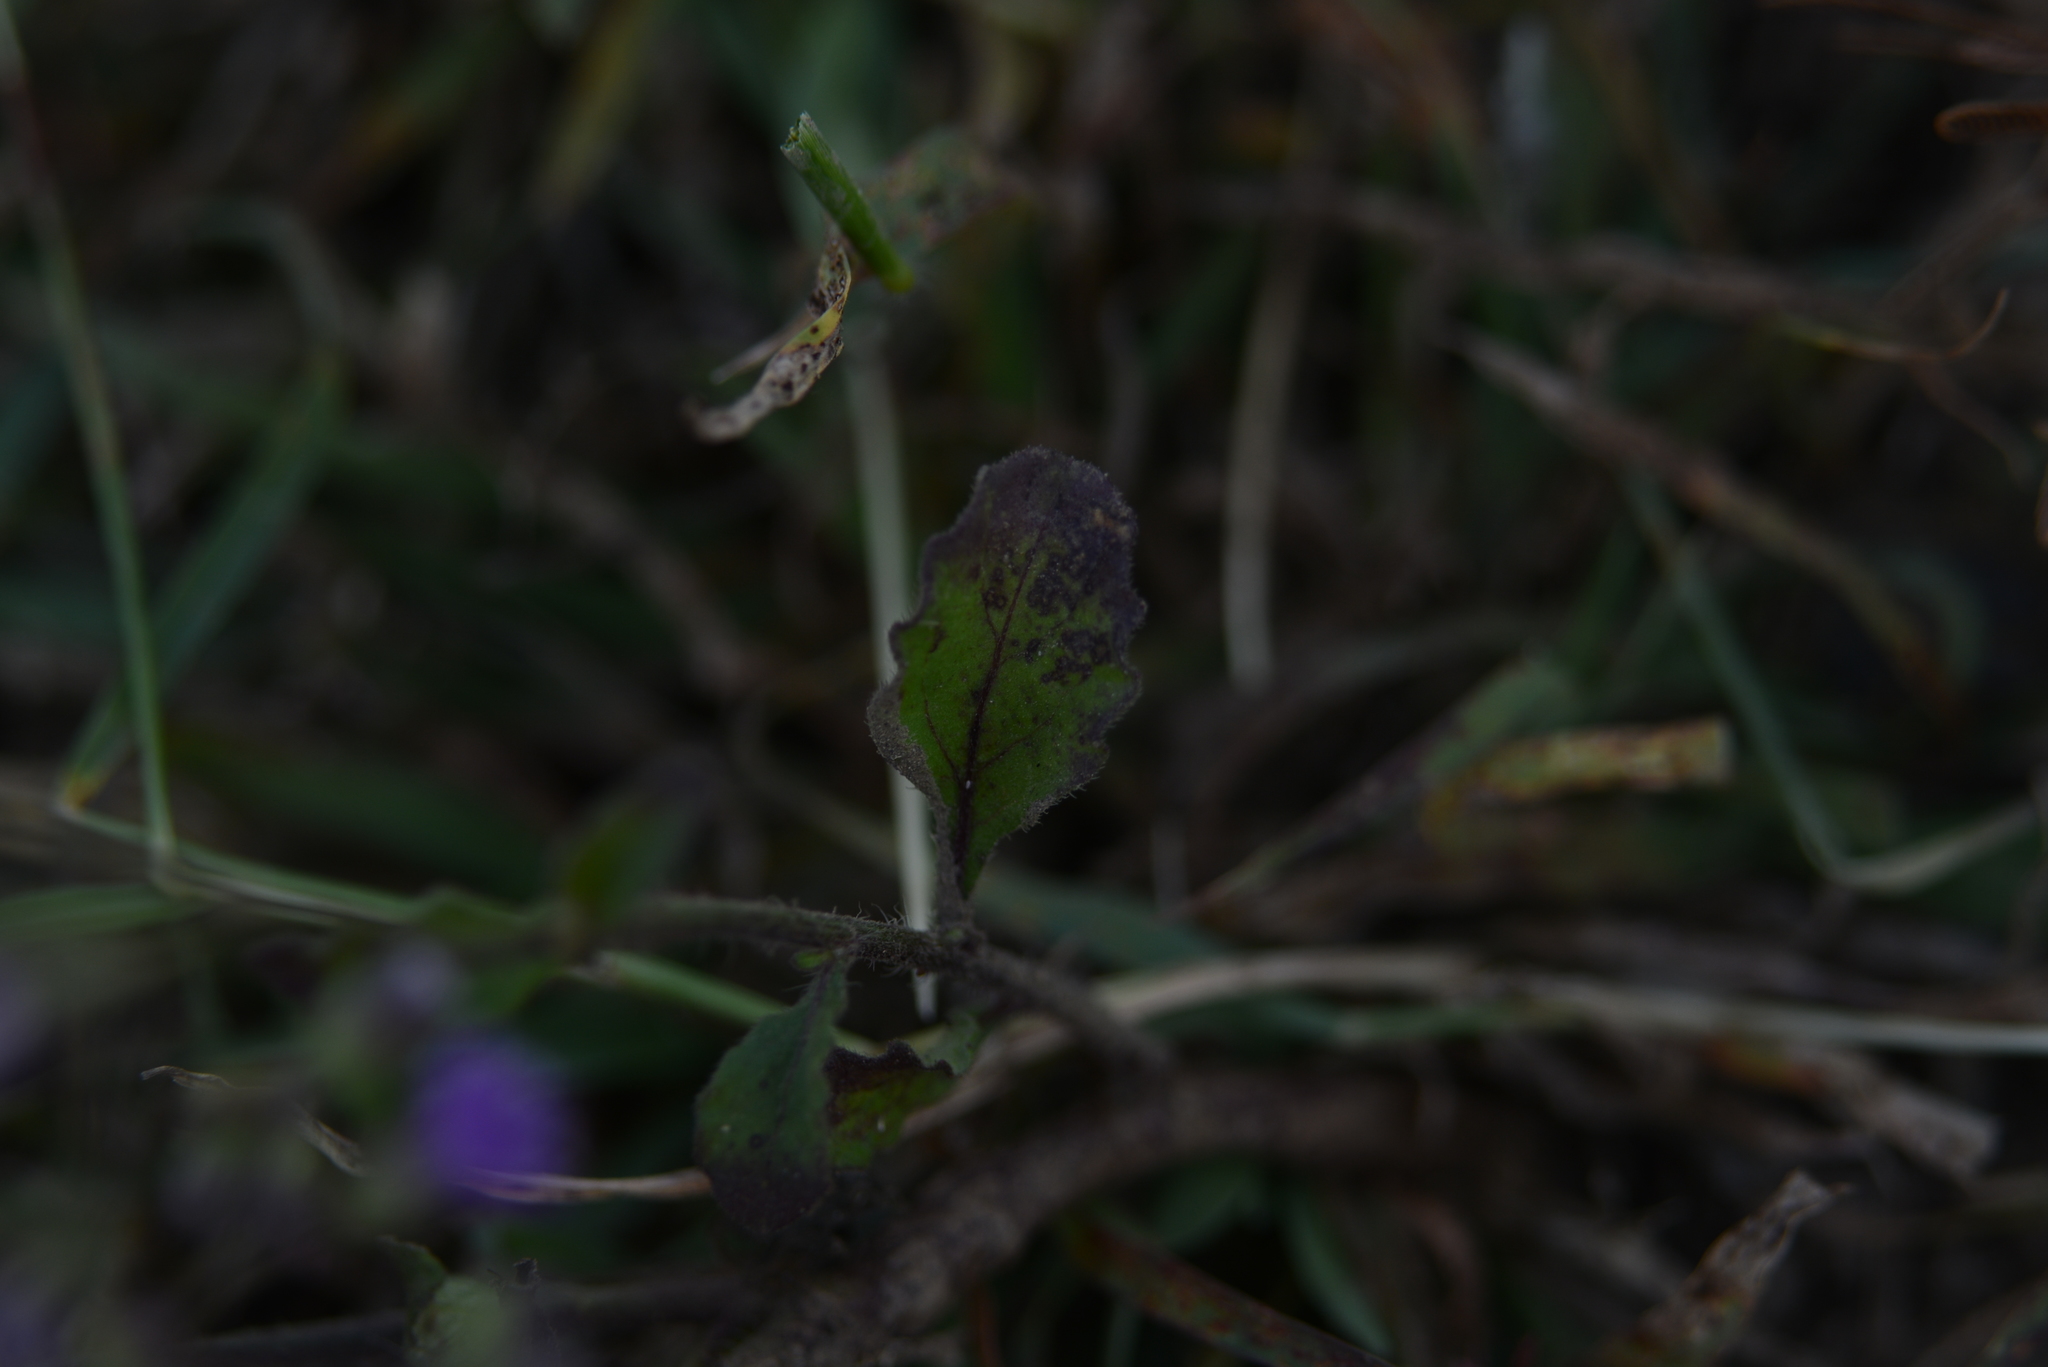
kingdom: Plantae
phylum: Tracheophyta
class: Magnoliopsida
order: Asterales
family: Asteraceae
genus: Cyanthillium
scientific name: Cyanthillium cinereum
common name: Little ironweed
